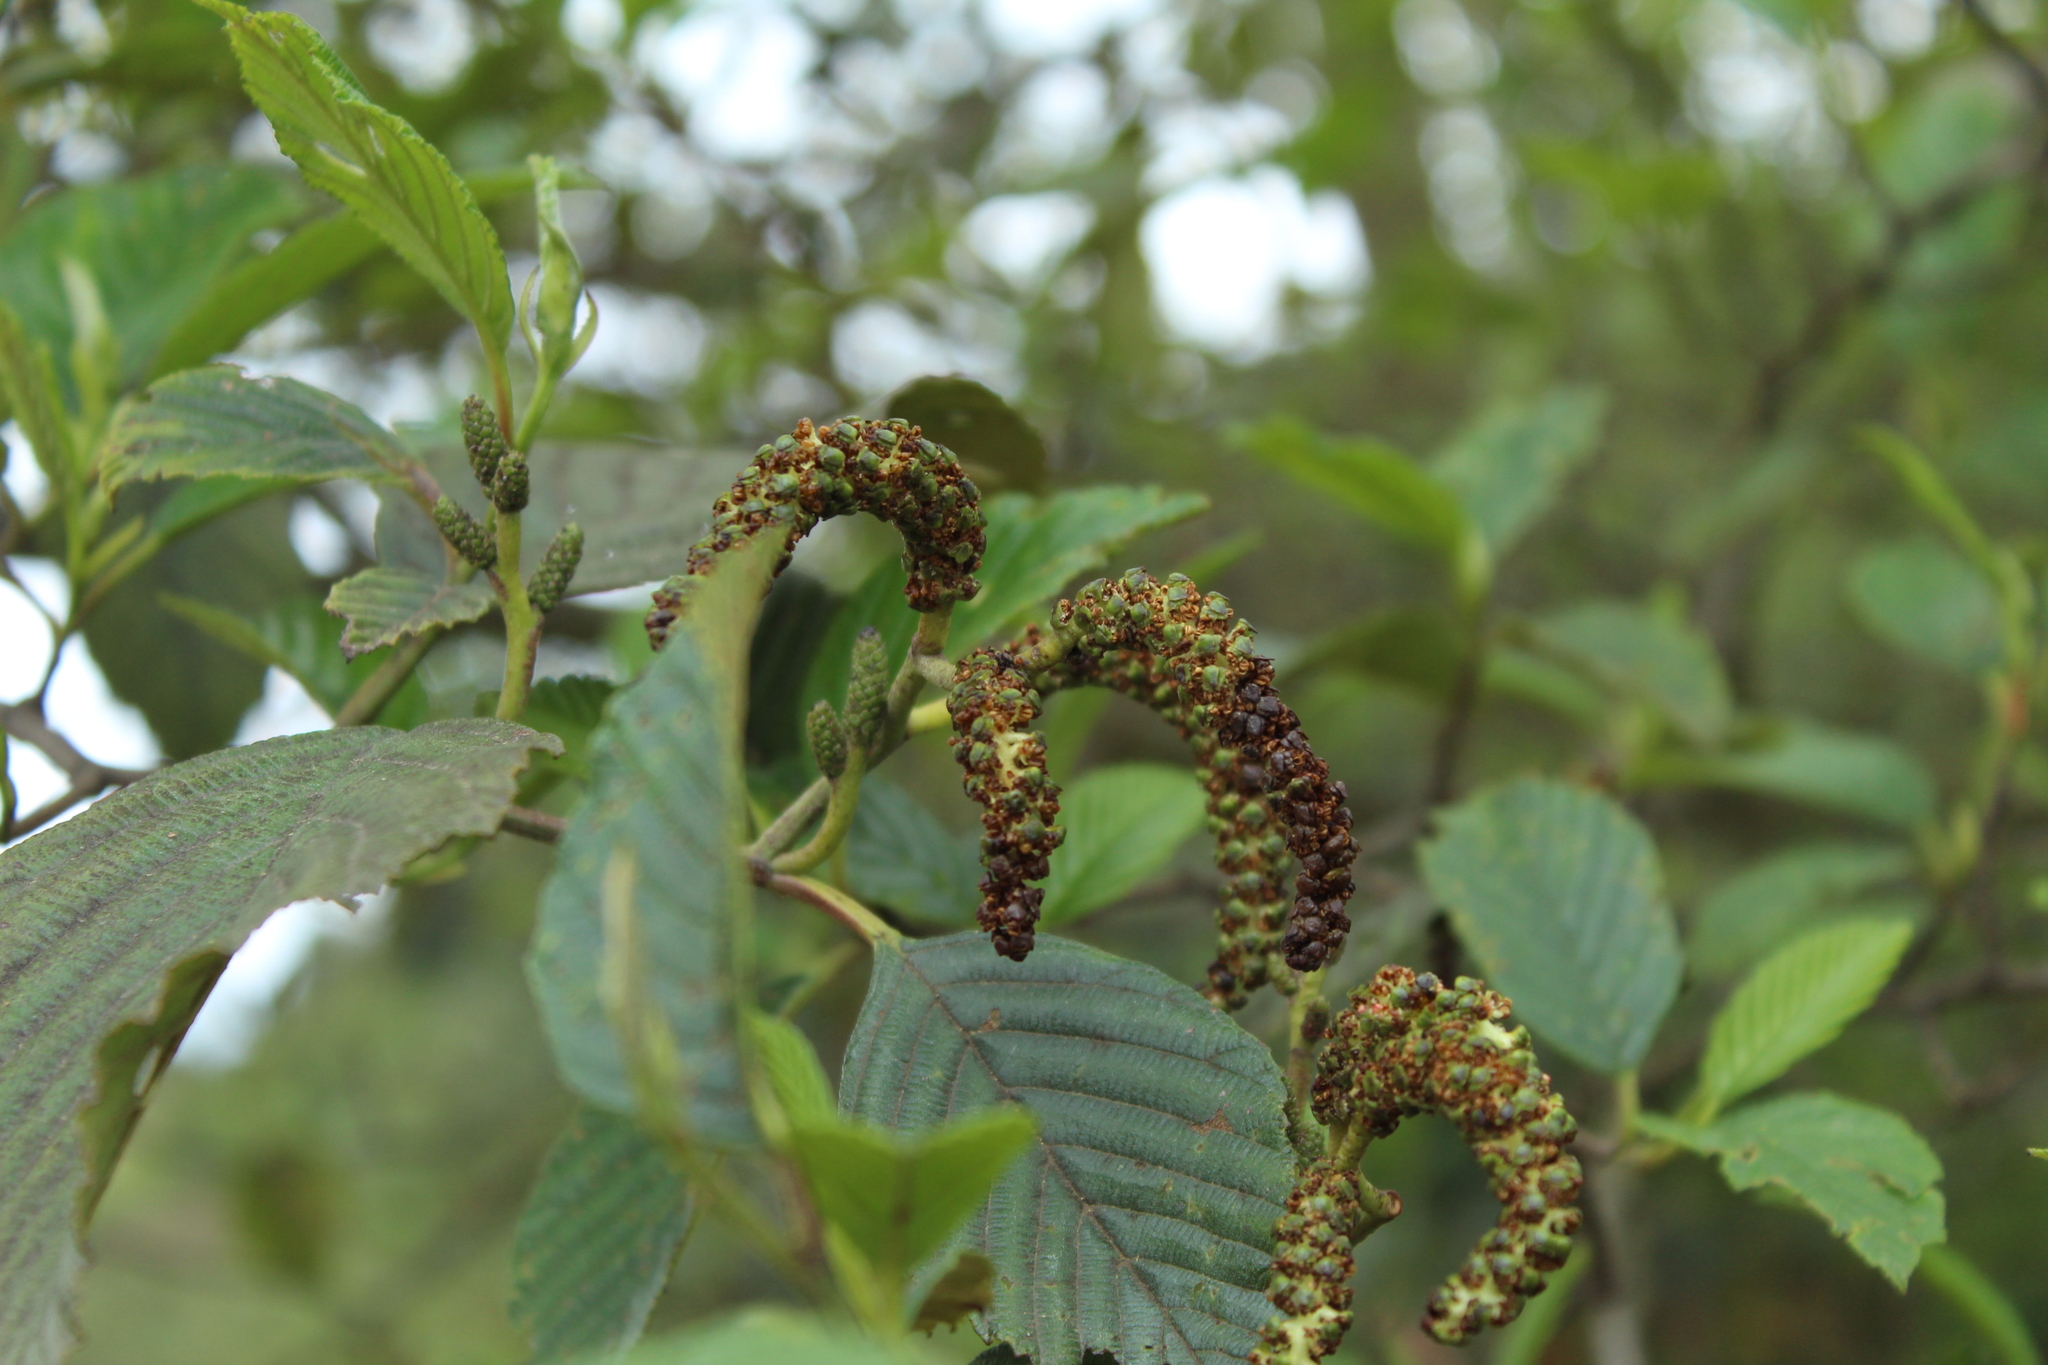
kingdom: Plantae
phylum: Tracheophyta
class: Magnoliopsida
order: Fagales
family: Betulaceae
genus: Alnus
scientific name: Alnus acuminata
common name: Alder
